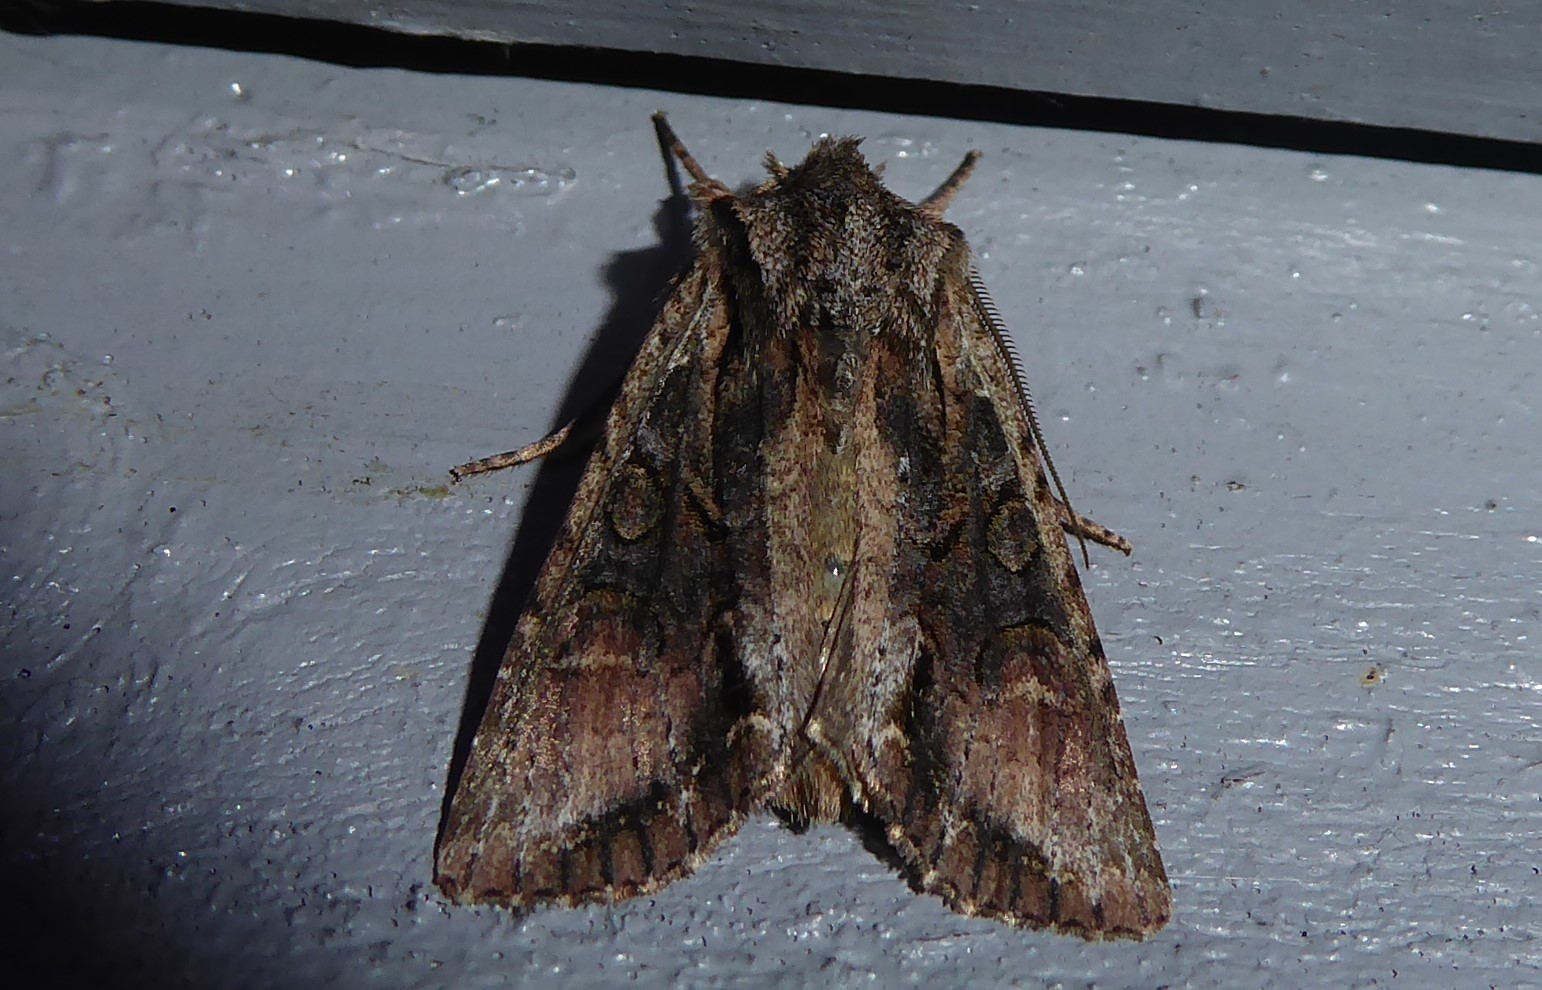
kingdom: Animalia
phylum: Arthropoda
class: Insecta
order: Lepidoptera
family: Noctuidae
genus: Ichneutica
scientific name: Ichneutica mutans
